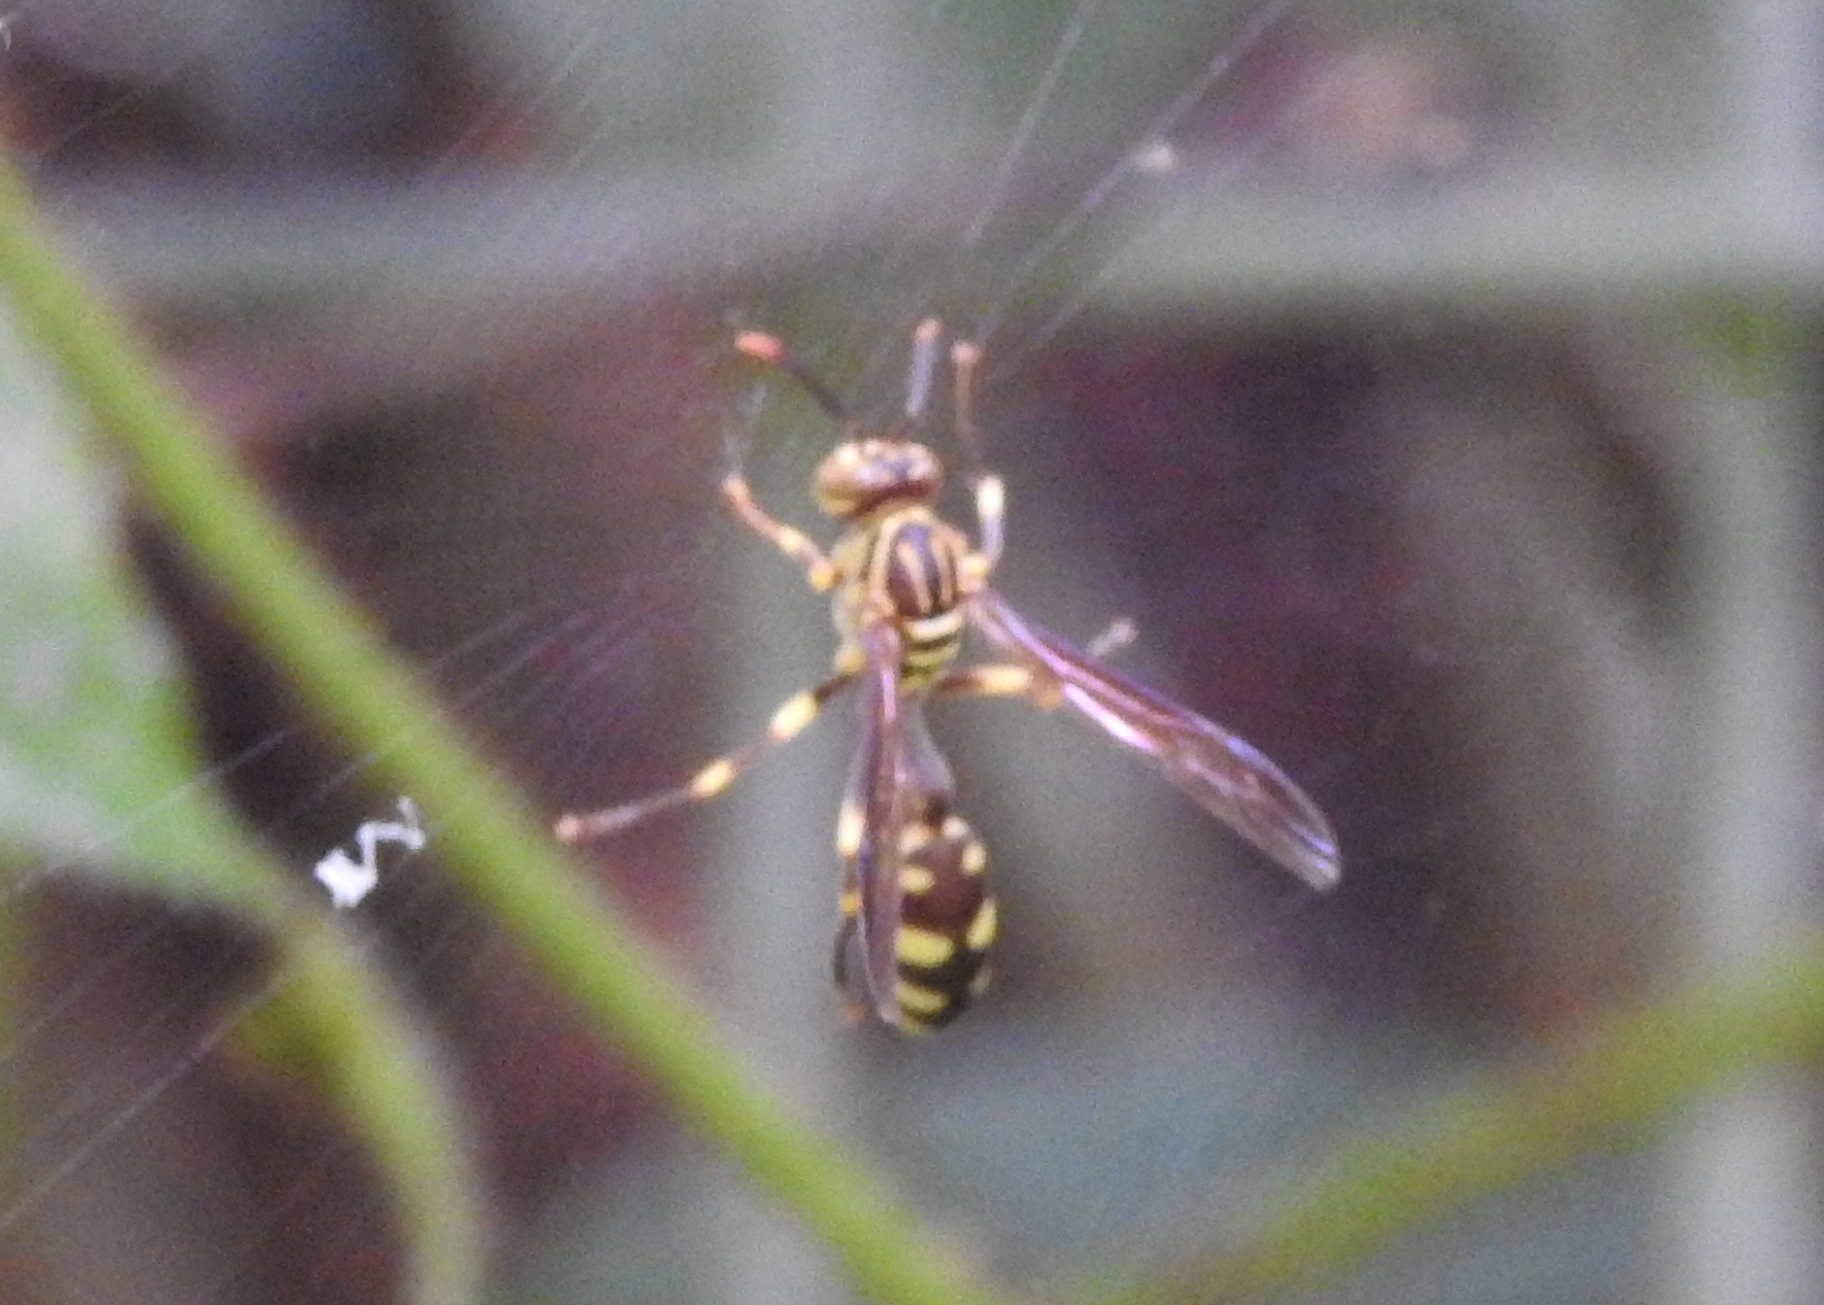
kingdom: Animalia
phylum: Arthropoda
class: Insecta
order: Hymenoptera
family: Vespidae
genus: Parapolybia
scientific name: Parapolybia varia
